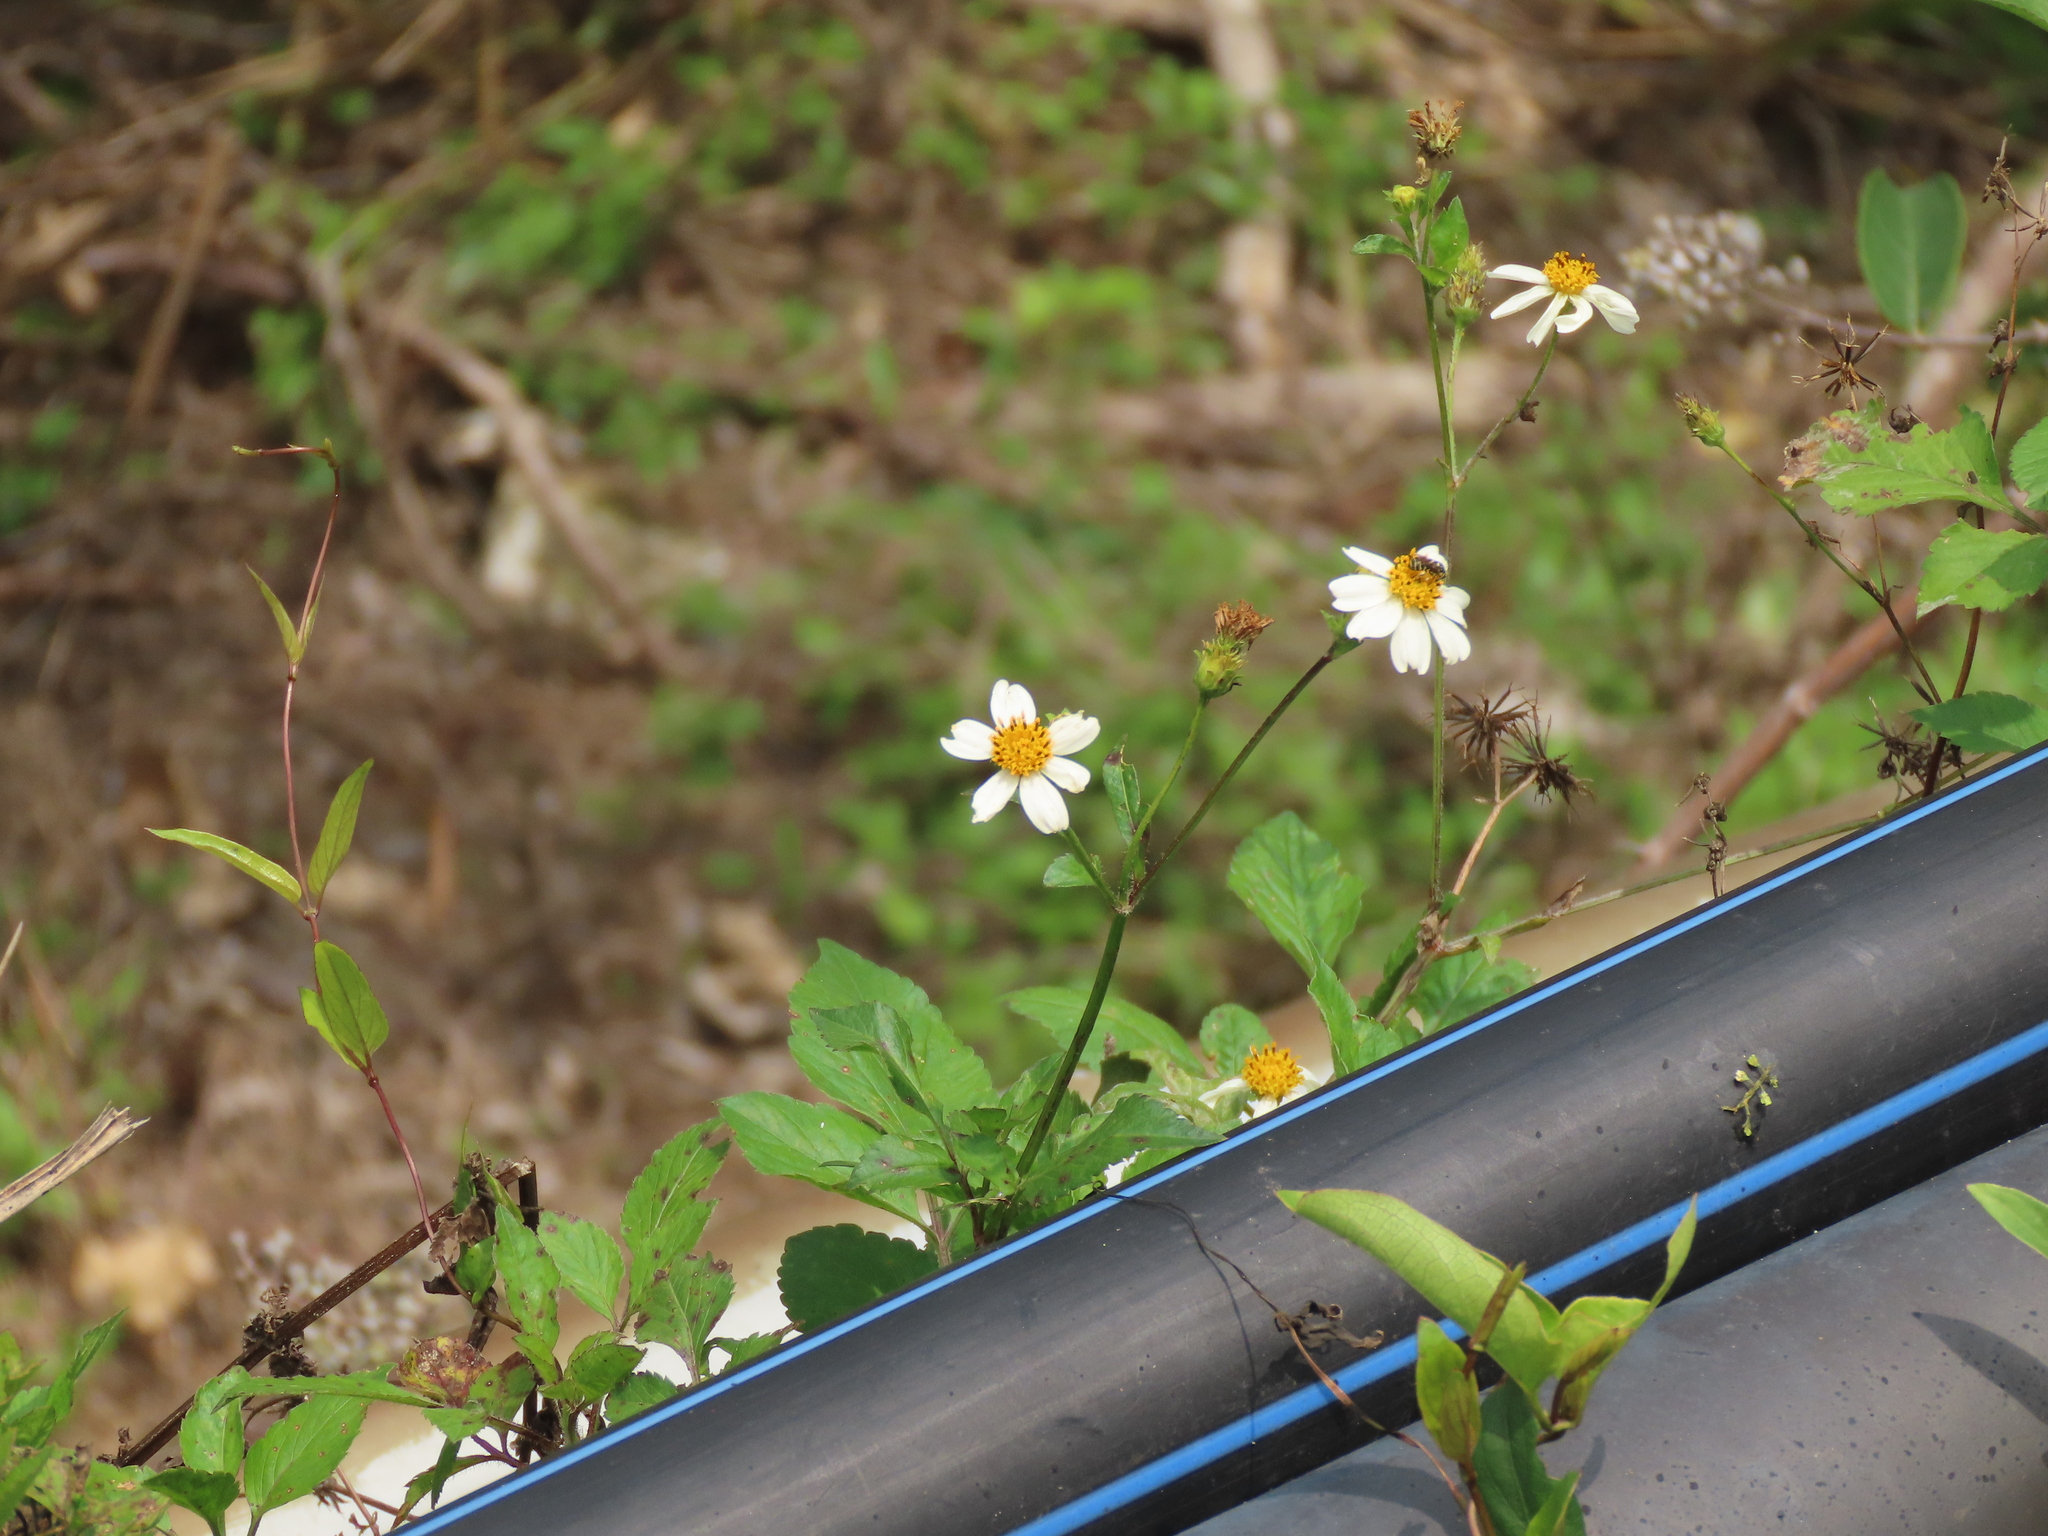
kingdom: Plantae
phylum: Tracheophyta
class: Magnoliopsida
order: Asterales
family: Asteraceae
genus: Bidens
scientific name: Bidens alba
